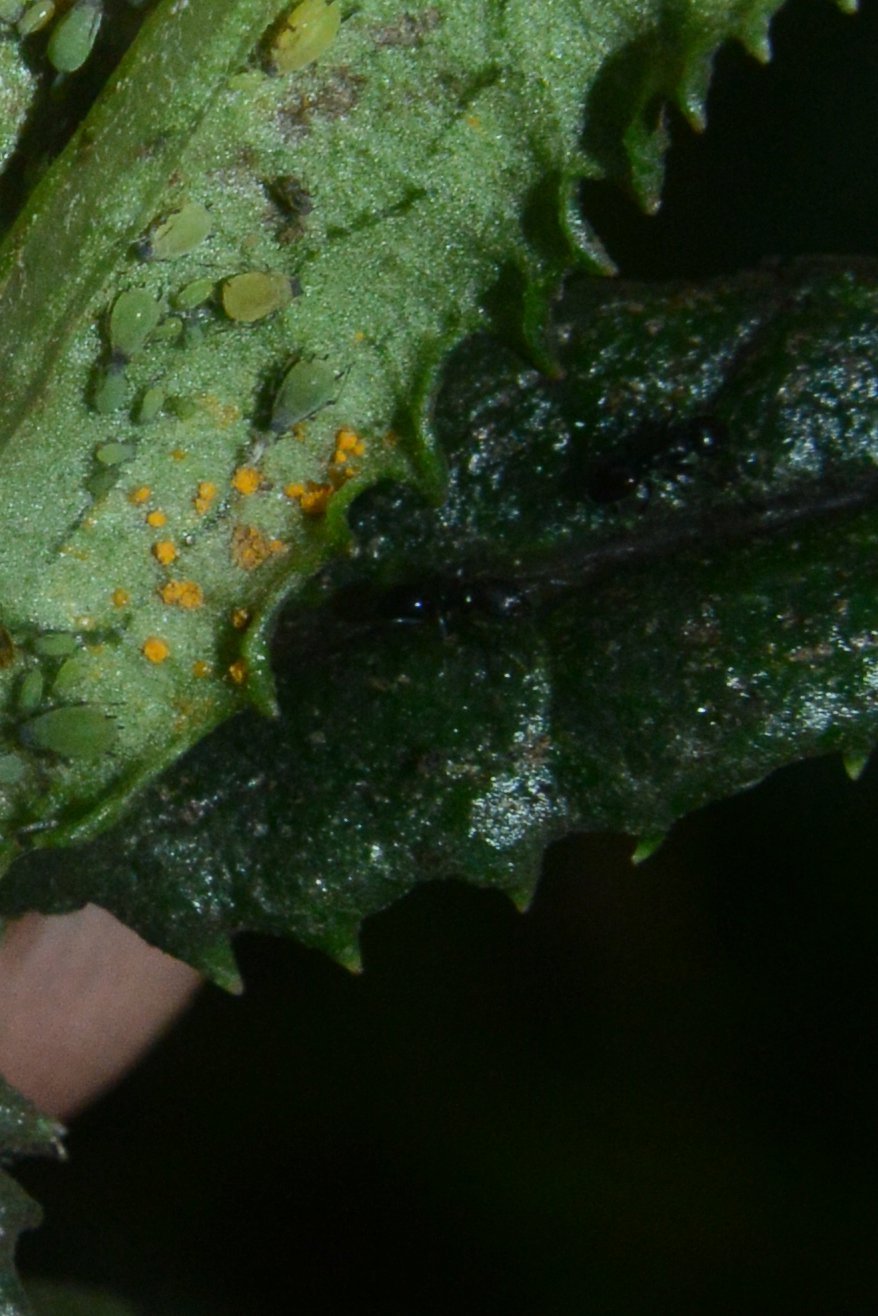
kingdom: Fungi
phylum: Basidiomycota
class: Pucciniomycetes
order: Pucciniales
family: Coleosporiaceae
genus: Coleosporium
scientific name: Coleosporium tussilaginis
